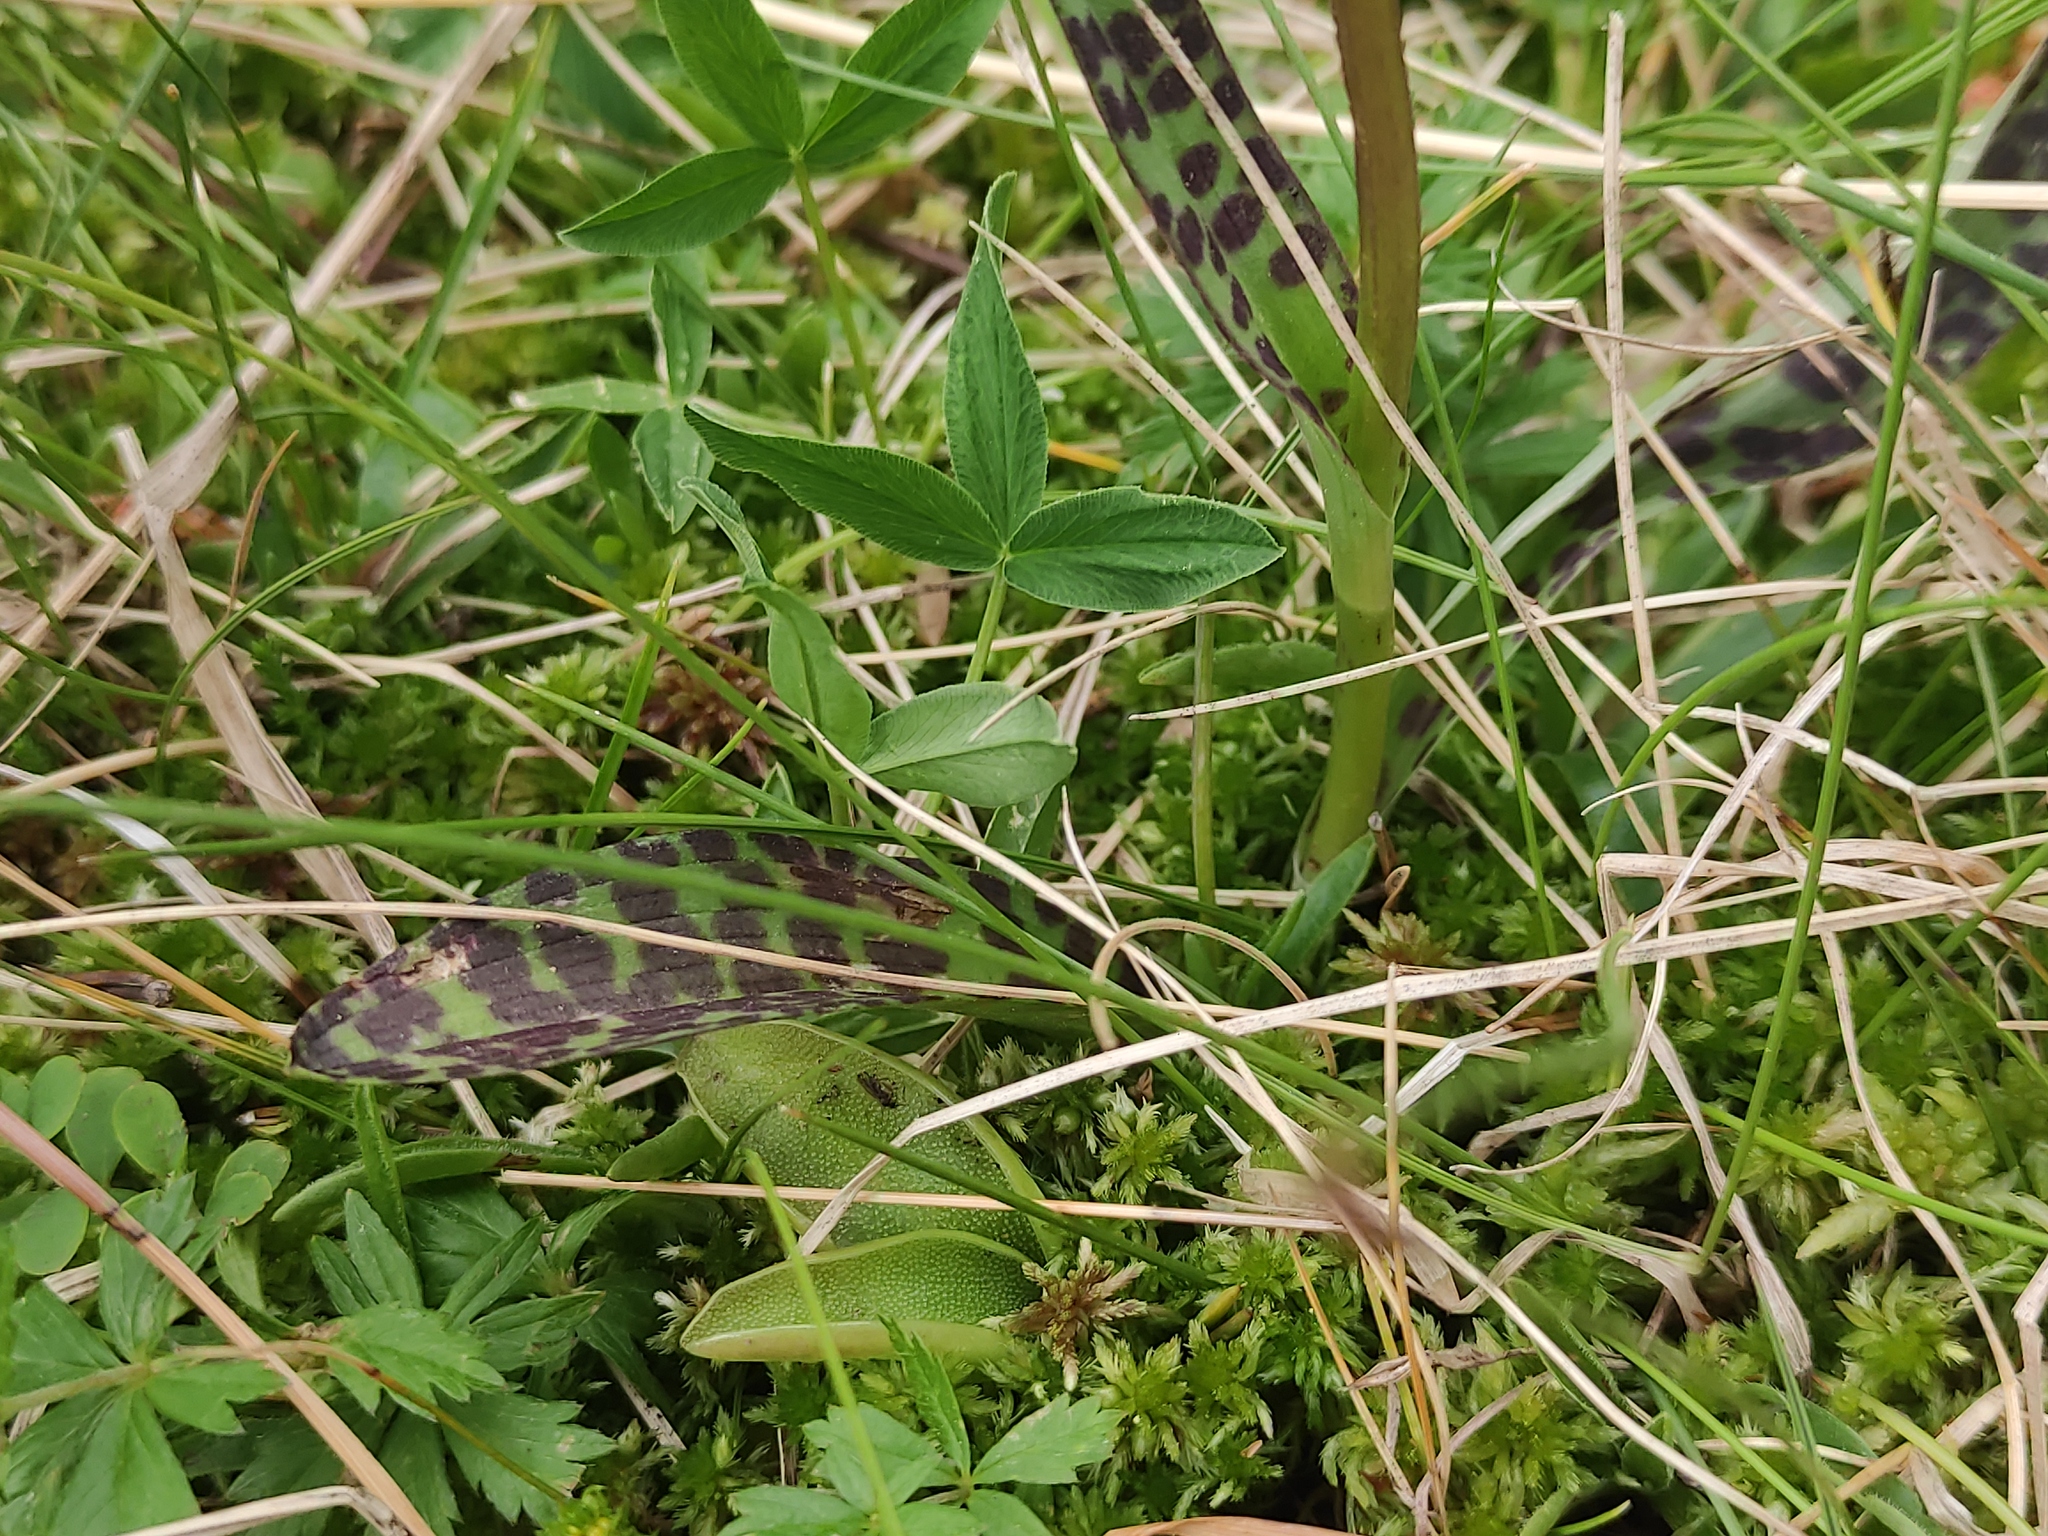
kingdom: Plantae
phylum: Tracheophyta
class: Liliopsida
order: Asparagales
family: Orchidaceae
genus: Dactylorhiza
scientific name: Dactylorhiza maculata
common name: Heath spotted-orchid
